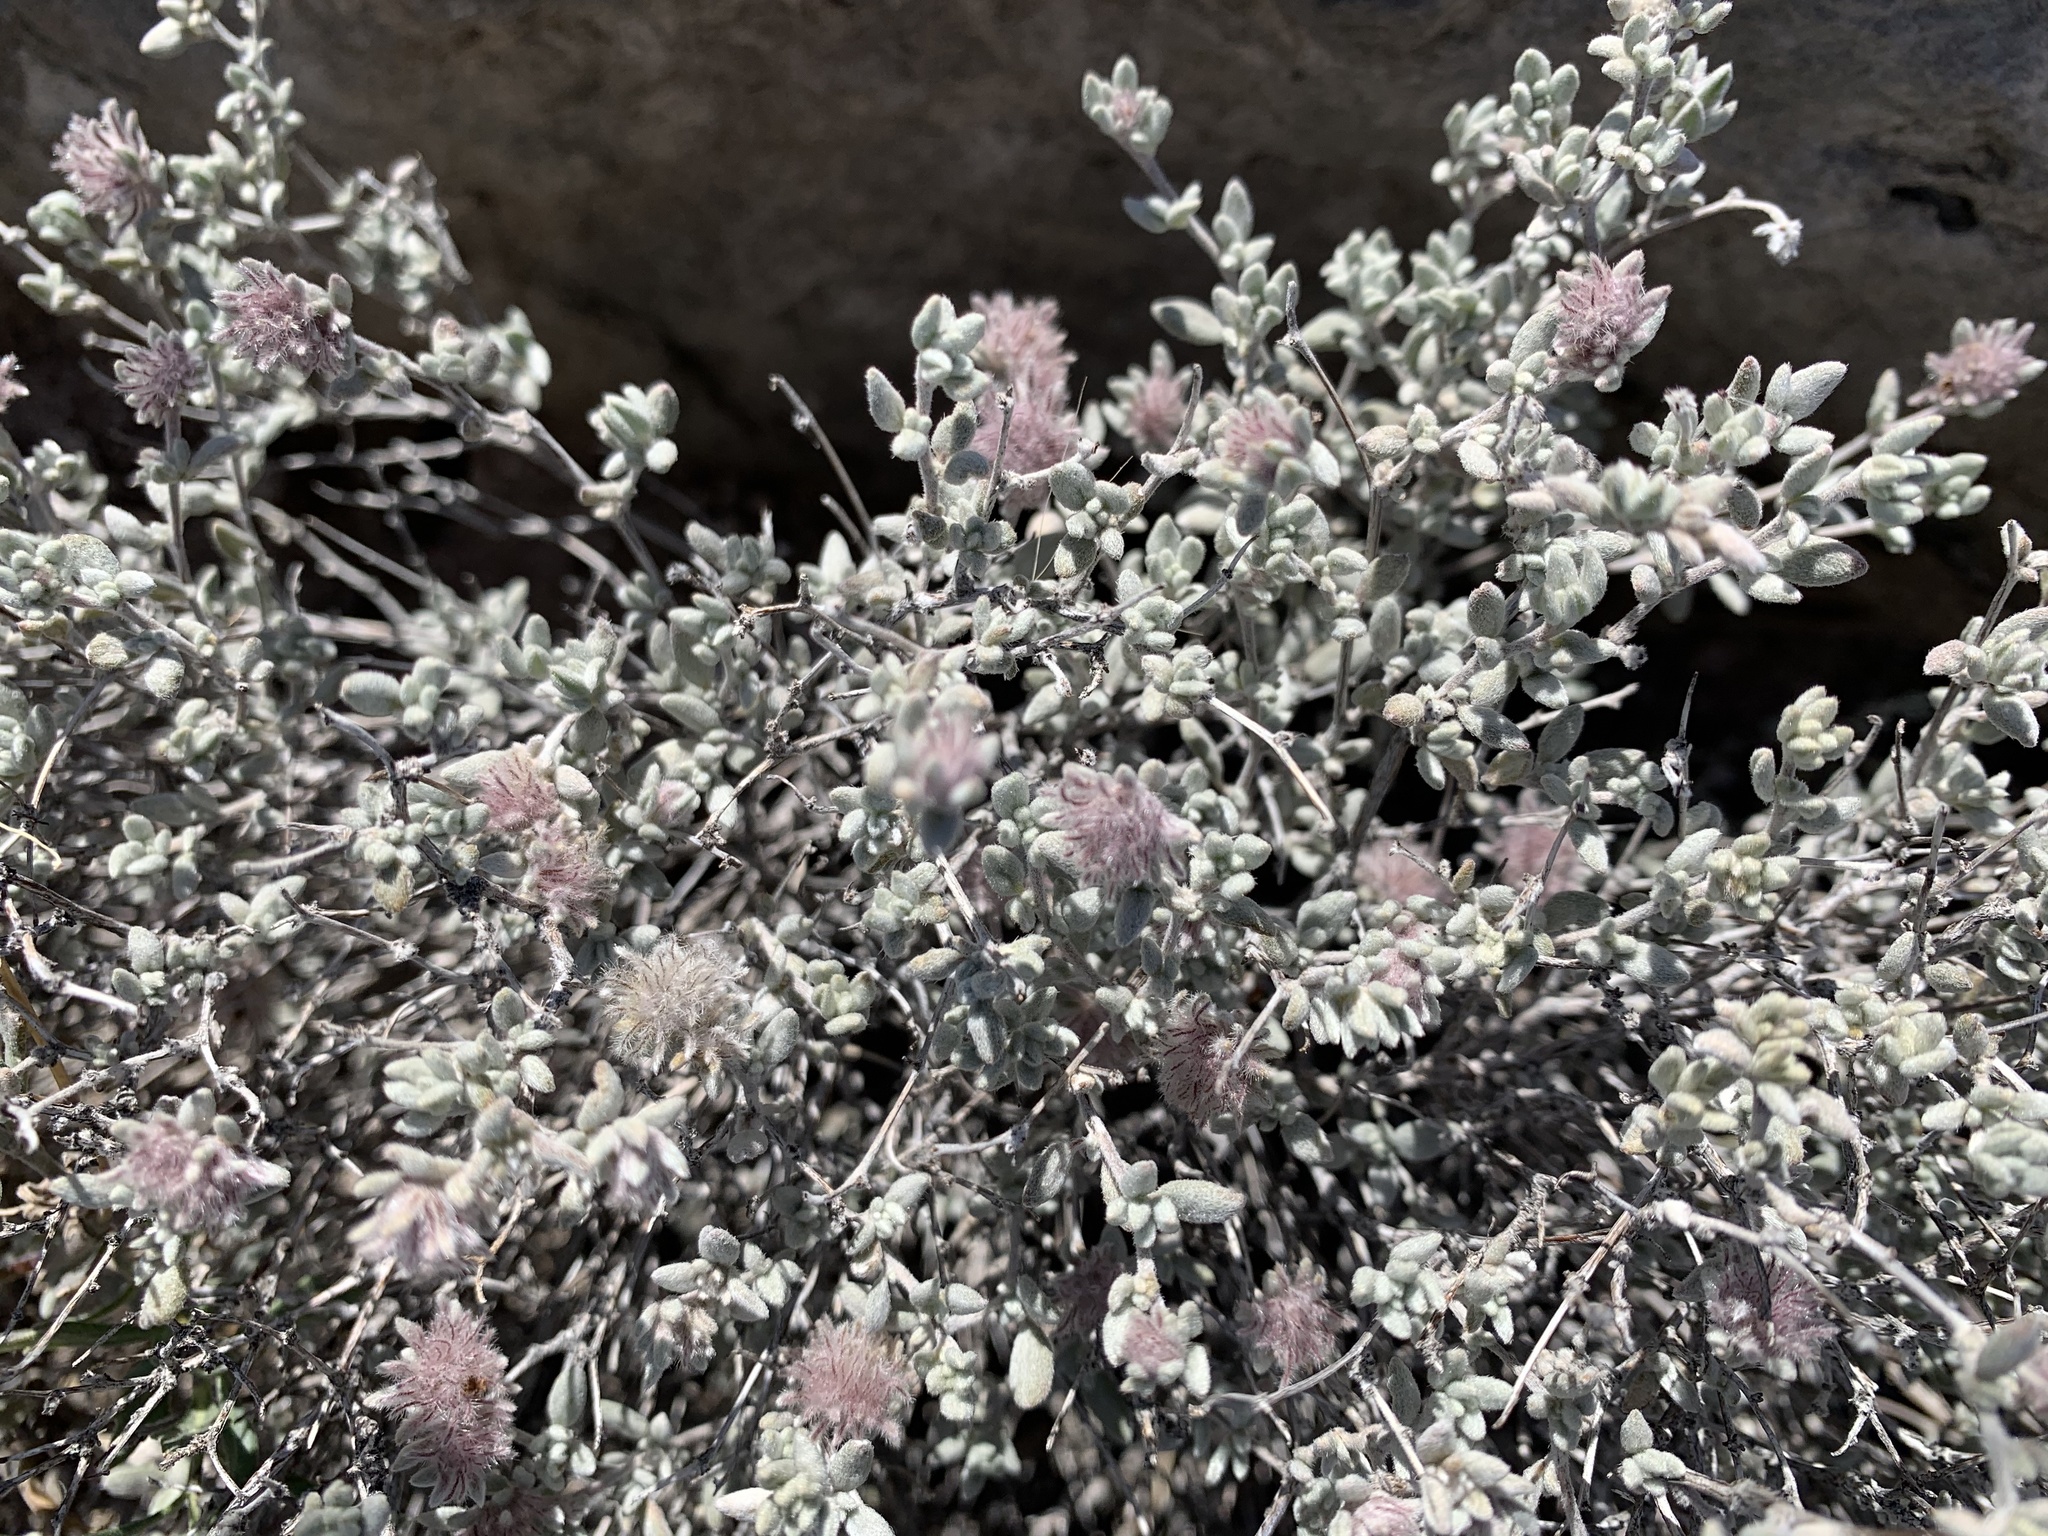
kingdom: Plantae
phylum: Tracheophyta
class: Magnoliopsida
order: Boraginales
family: Ehretiaceae
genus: Tiquilia
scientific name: Tiquilia greggii
